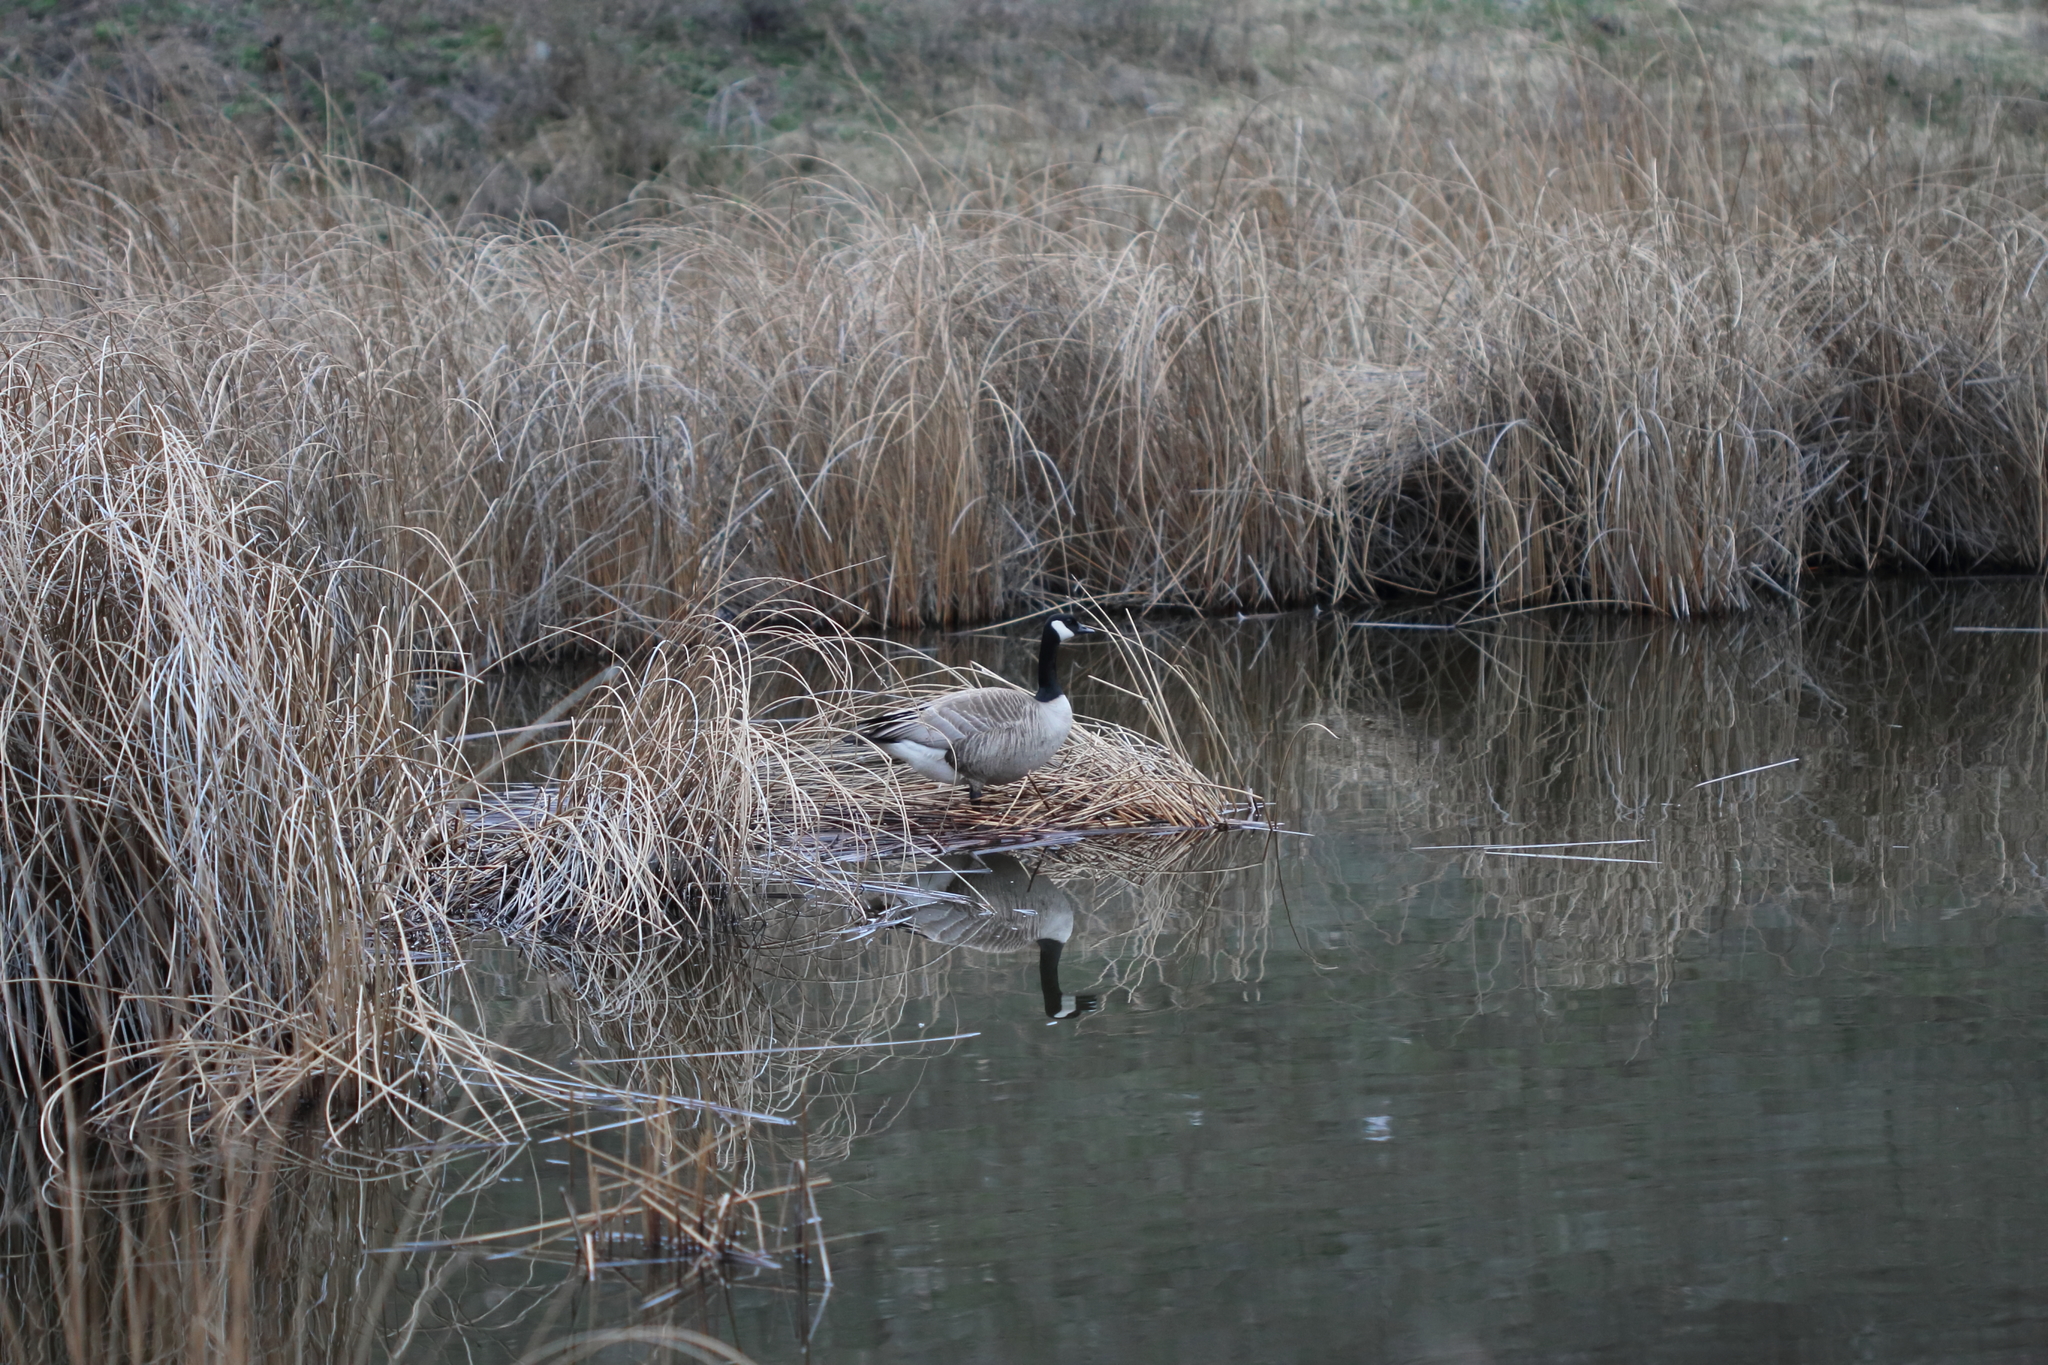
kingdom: Animalia
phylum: Chordata
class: Aves
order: Anseriformes
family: Anatidae
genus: Branta
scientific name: Branta canadensis
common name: Canada goose
